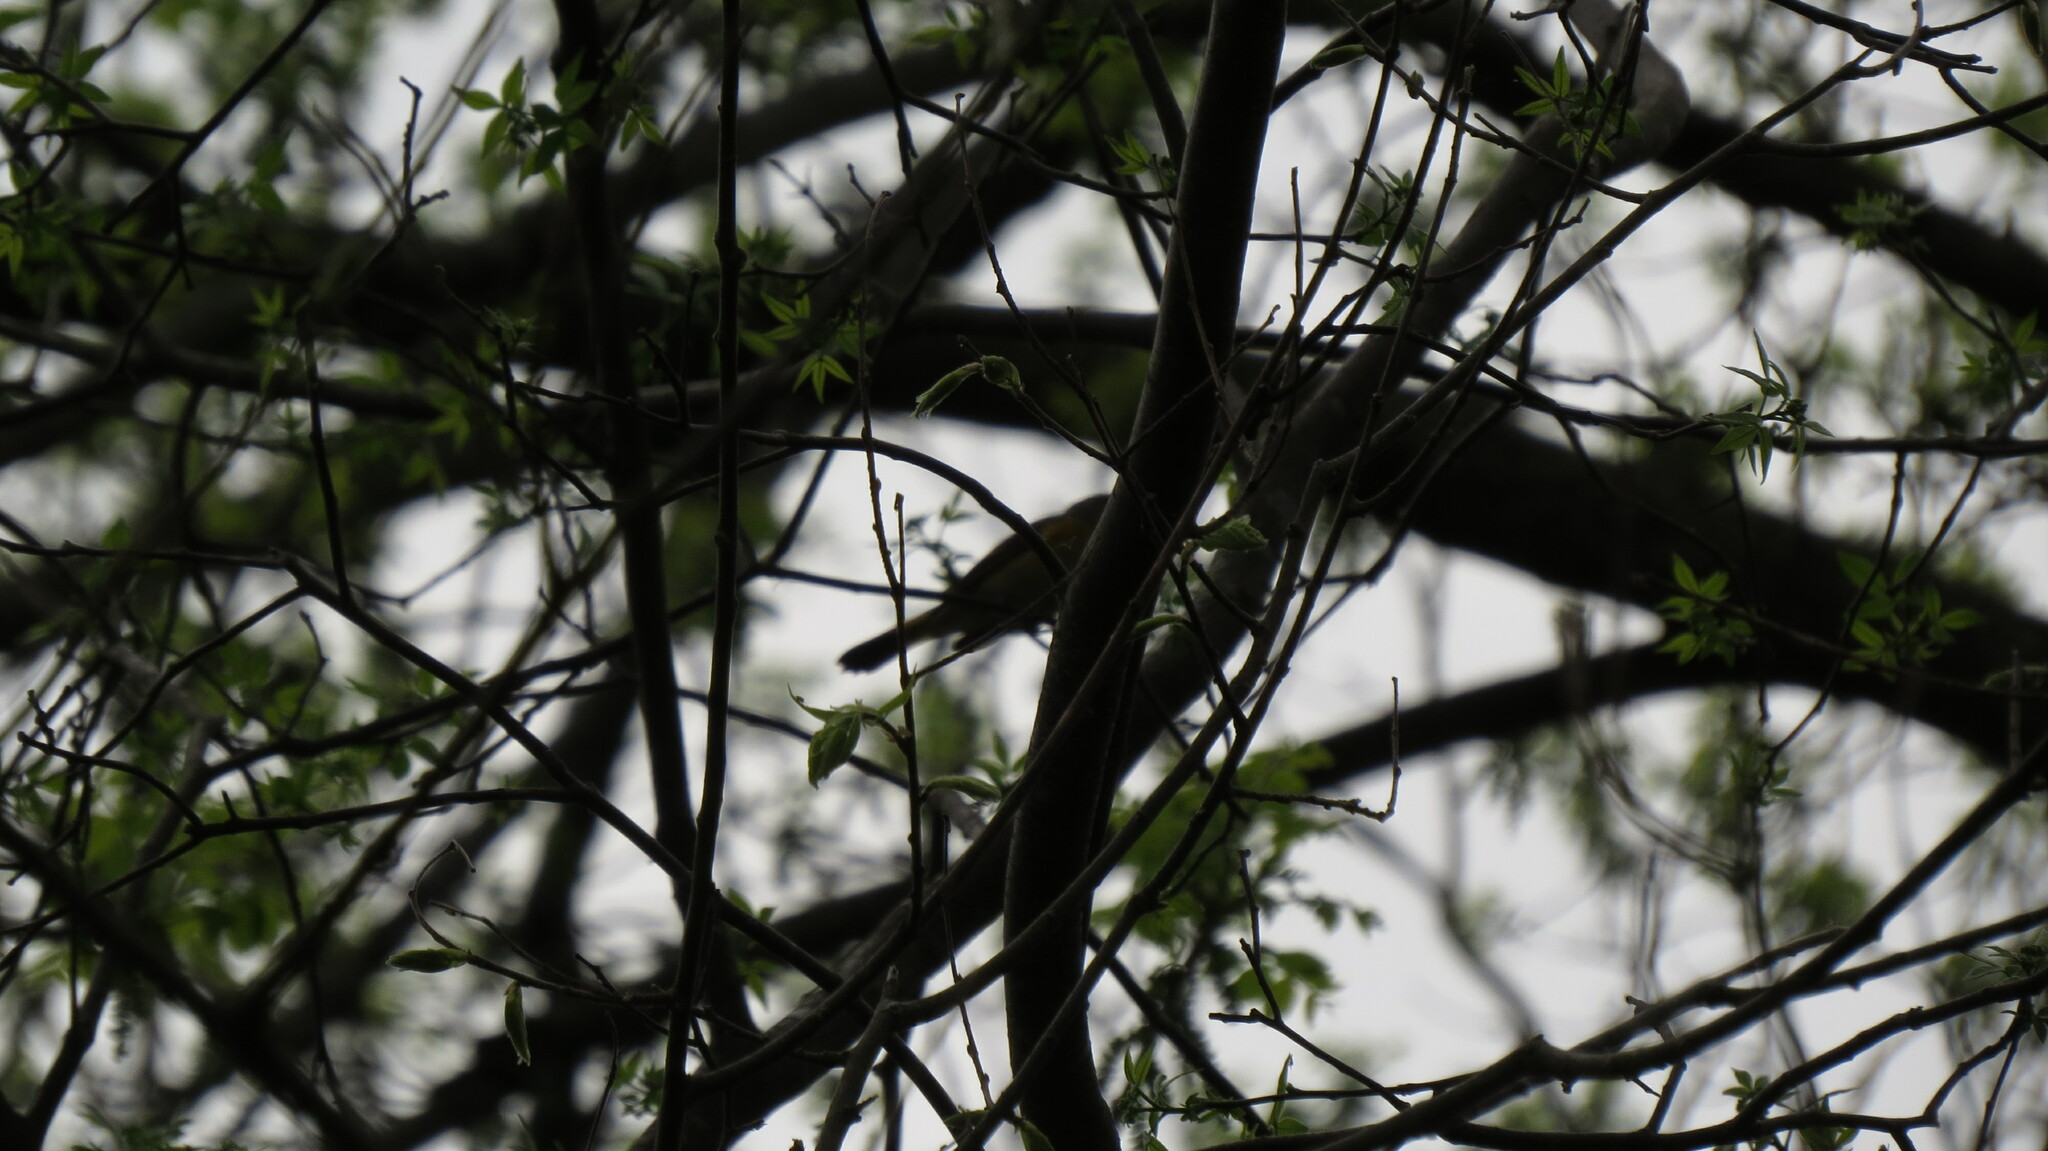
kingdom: Animalia
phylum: Chordata
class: Aves
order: Passeriformes
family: Parulidae
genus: Setophaga
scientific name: Setophaga ruticilla
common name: American redstart
